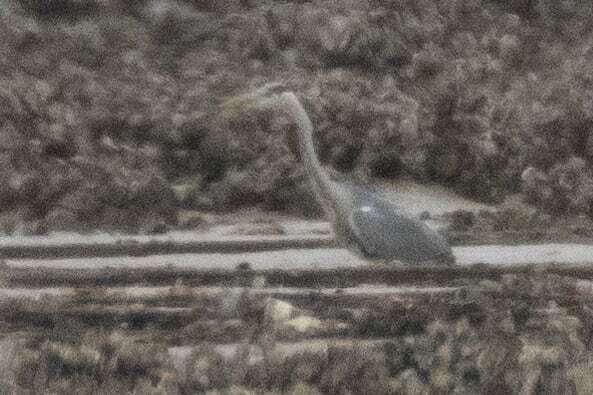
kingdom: Animalia
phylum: Chordata
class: Aves
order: Pelecaniformes
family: Ardeidae
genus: Ardea
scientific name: Ardea cinerea
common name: Grey heron
